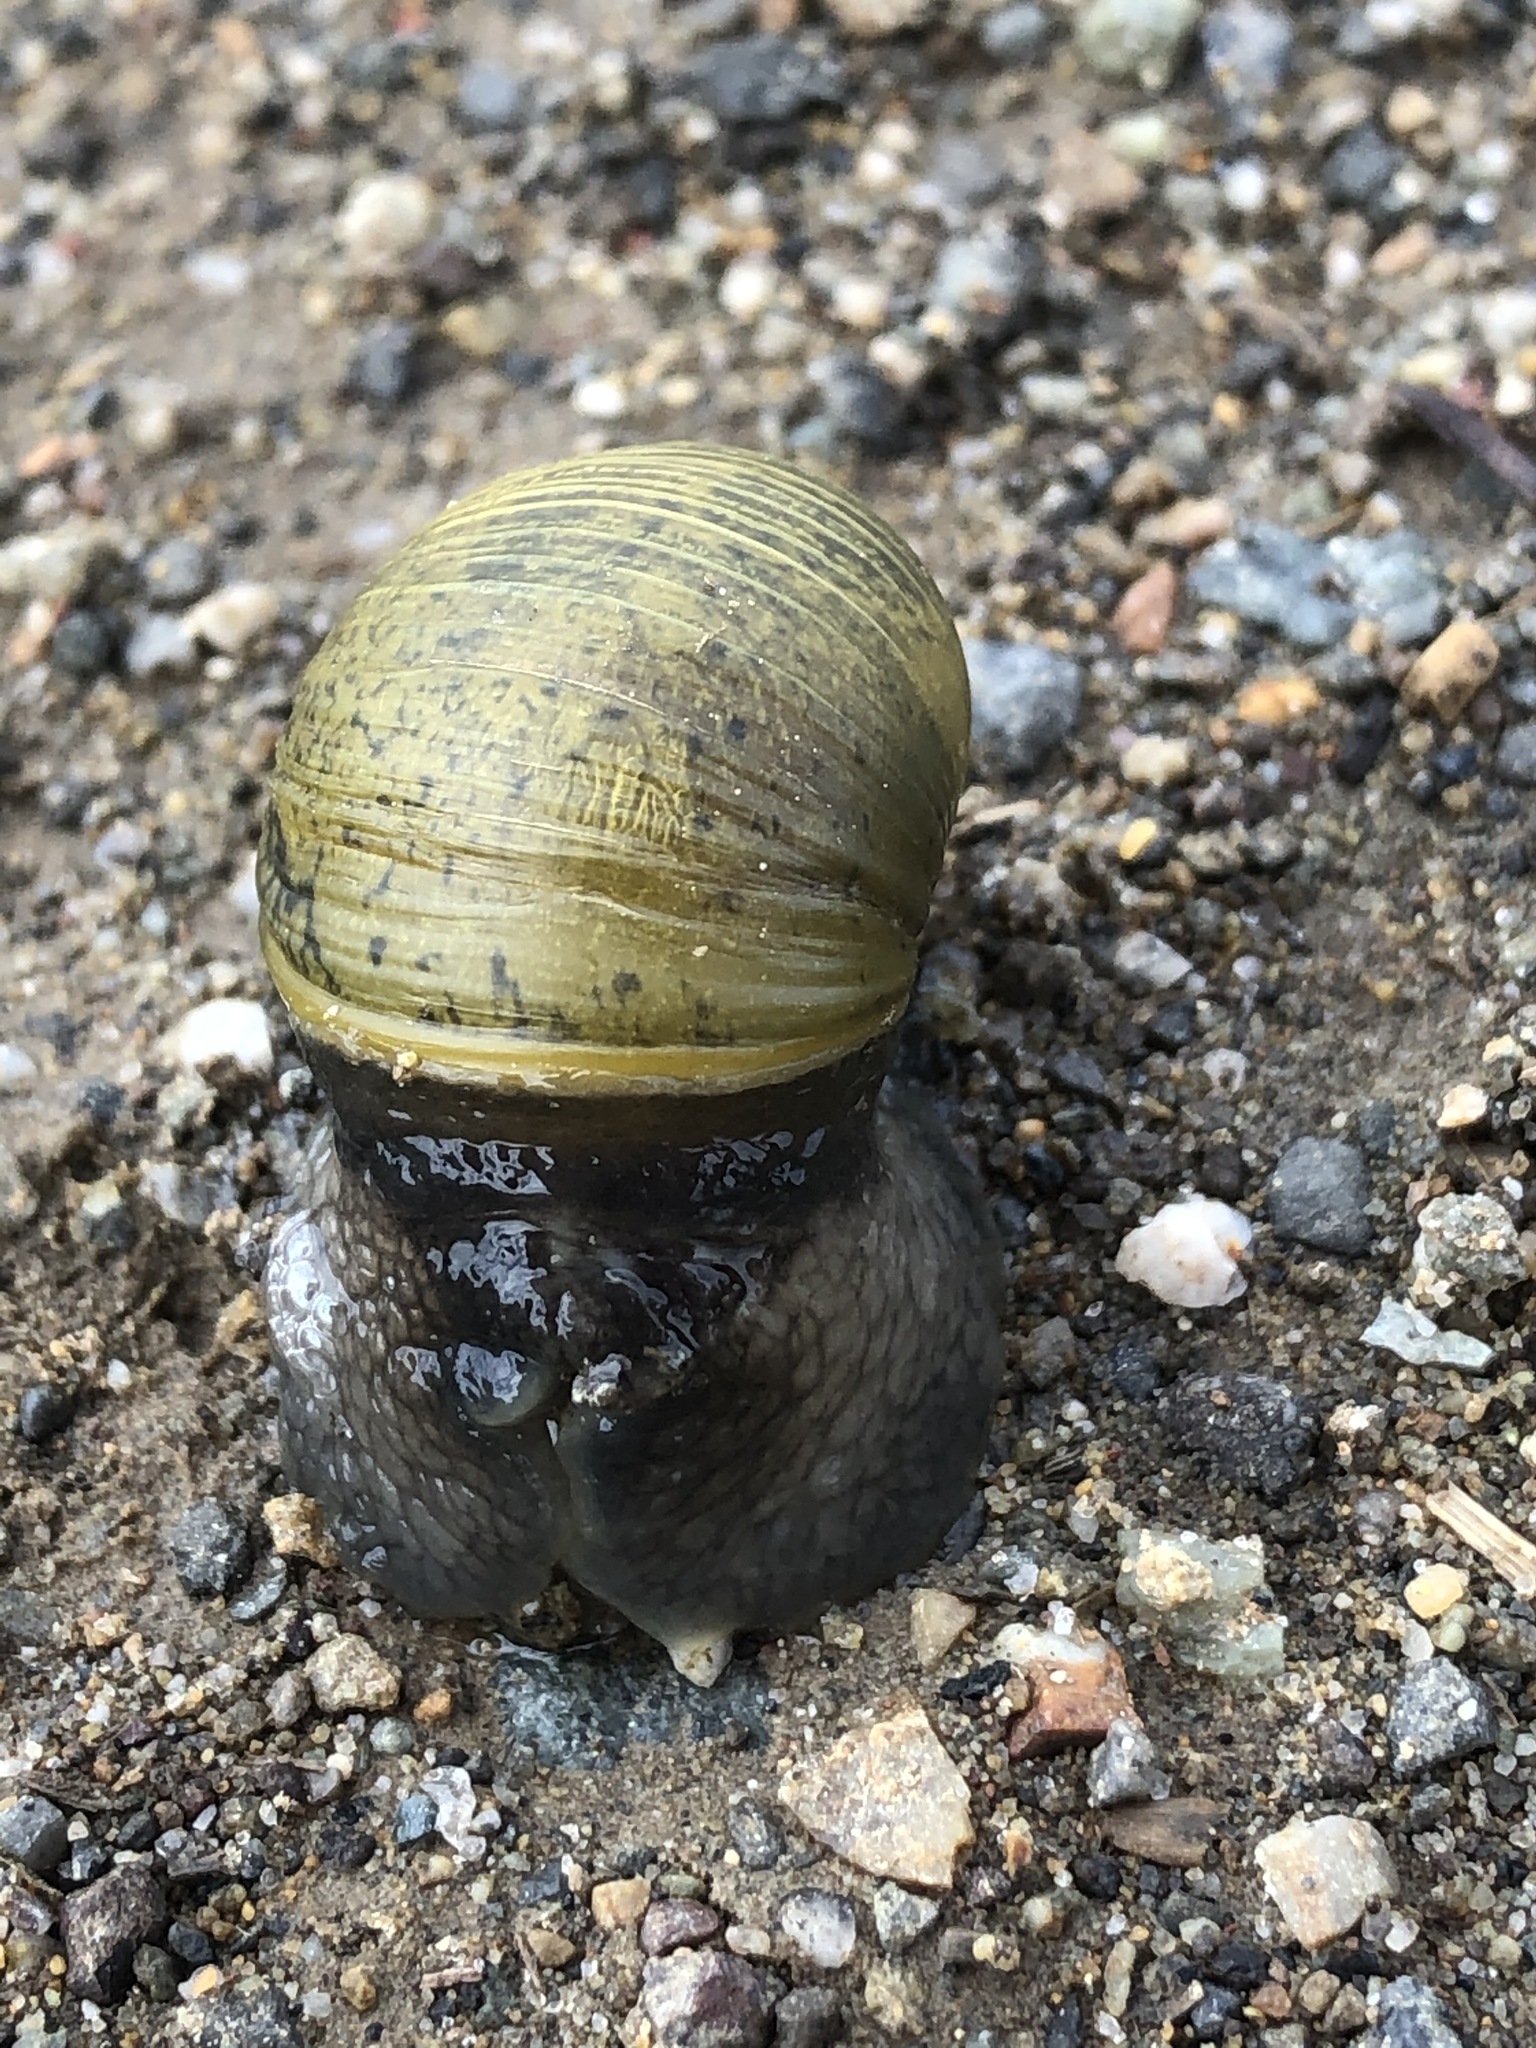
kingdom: Animalia
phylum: Mollusca
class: Gastropoda
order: Stylommatophora
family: Helicidae
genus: Cantareus
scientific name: Cantareus apertus
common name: Green gardensnail
